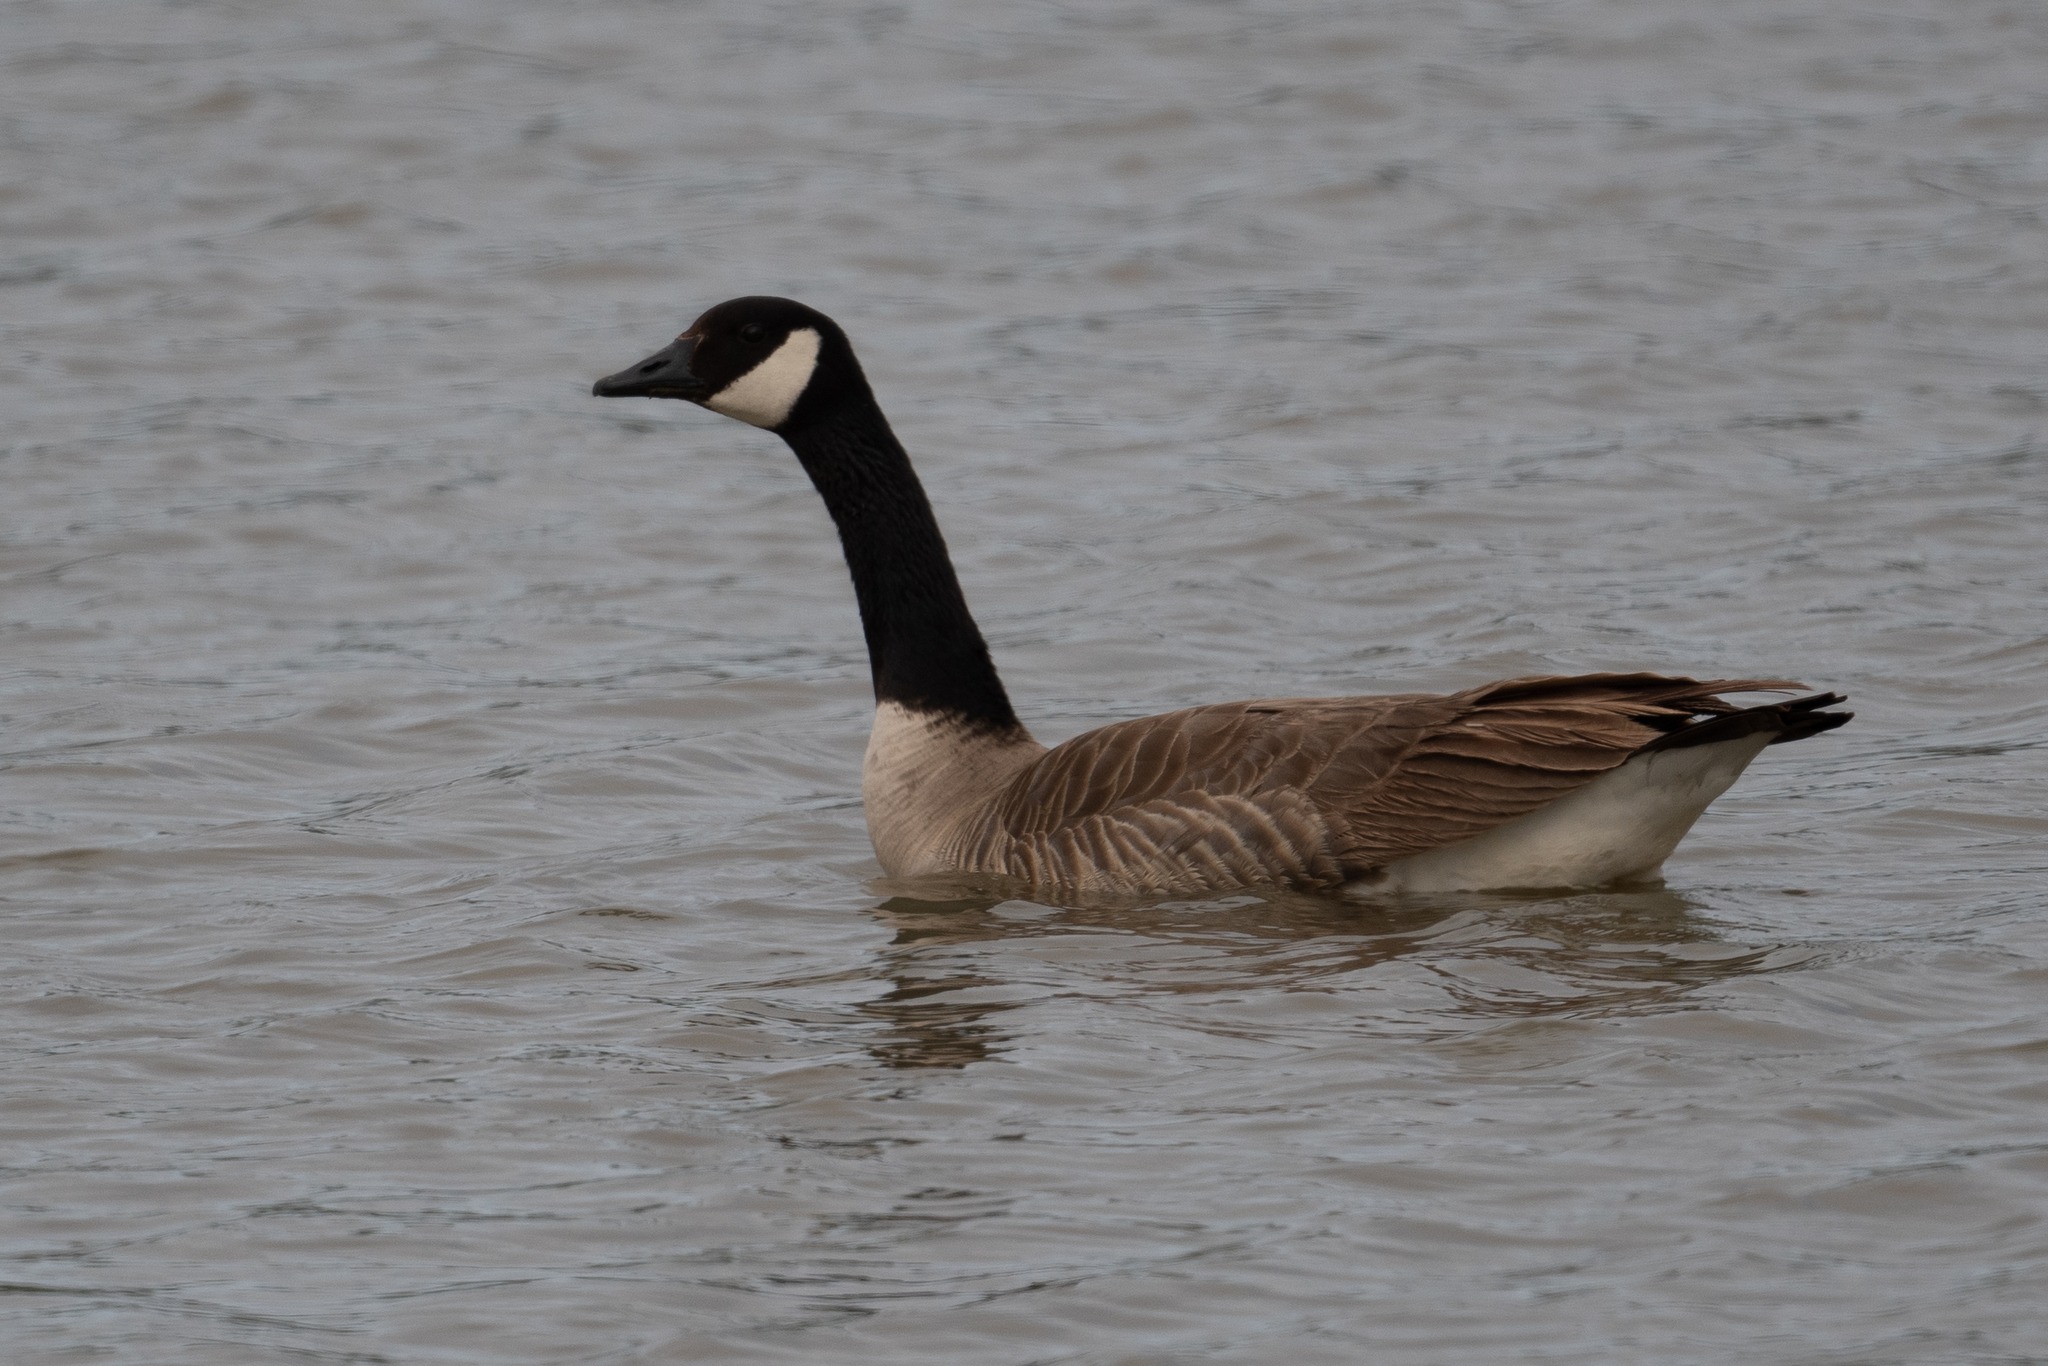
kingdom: Animalia
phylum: Chordata
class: Aves
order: Anseriformes
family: Anatidae
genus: Branta
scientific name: Branta canadensis
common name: Canada goose
